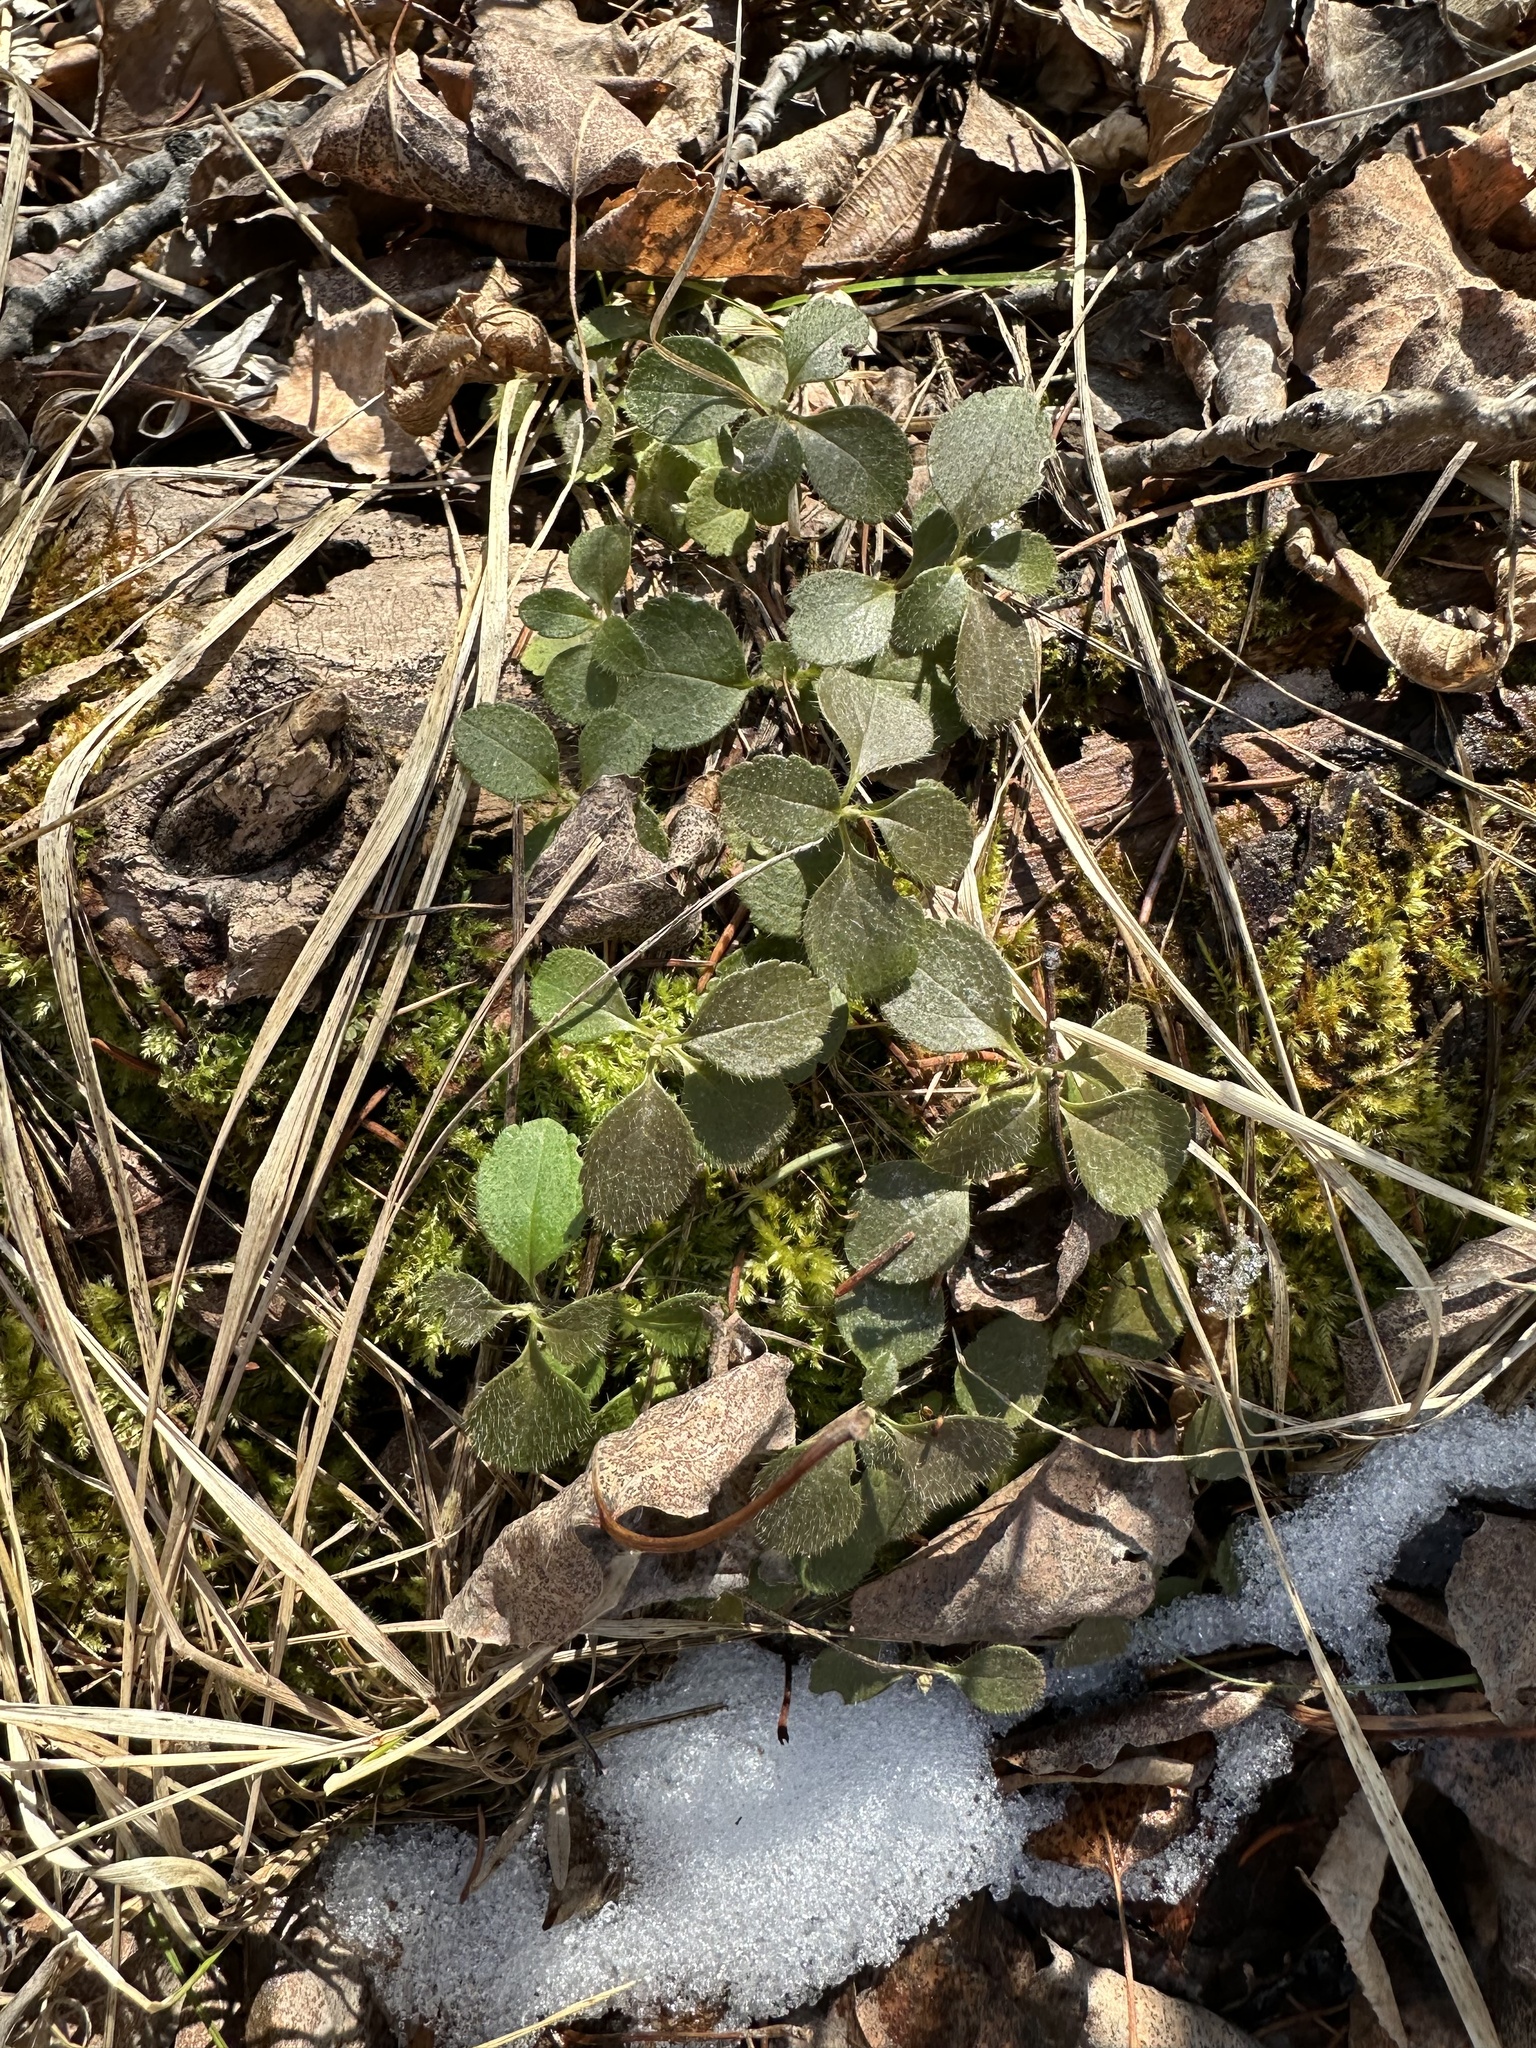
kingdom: Plantae
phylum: Tracheophyta
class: Magnoliopsida
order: Dipsacales
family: Caprifoliaceae
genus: Linnaea
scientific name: Linnaea borealis
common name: Twinflower
